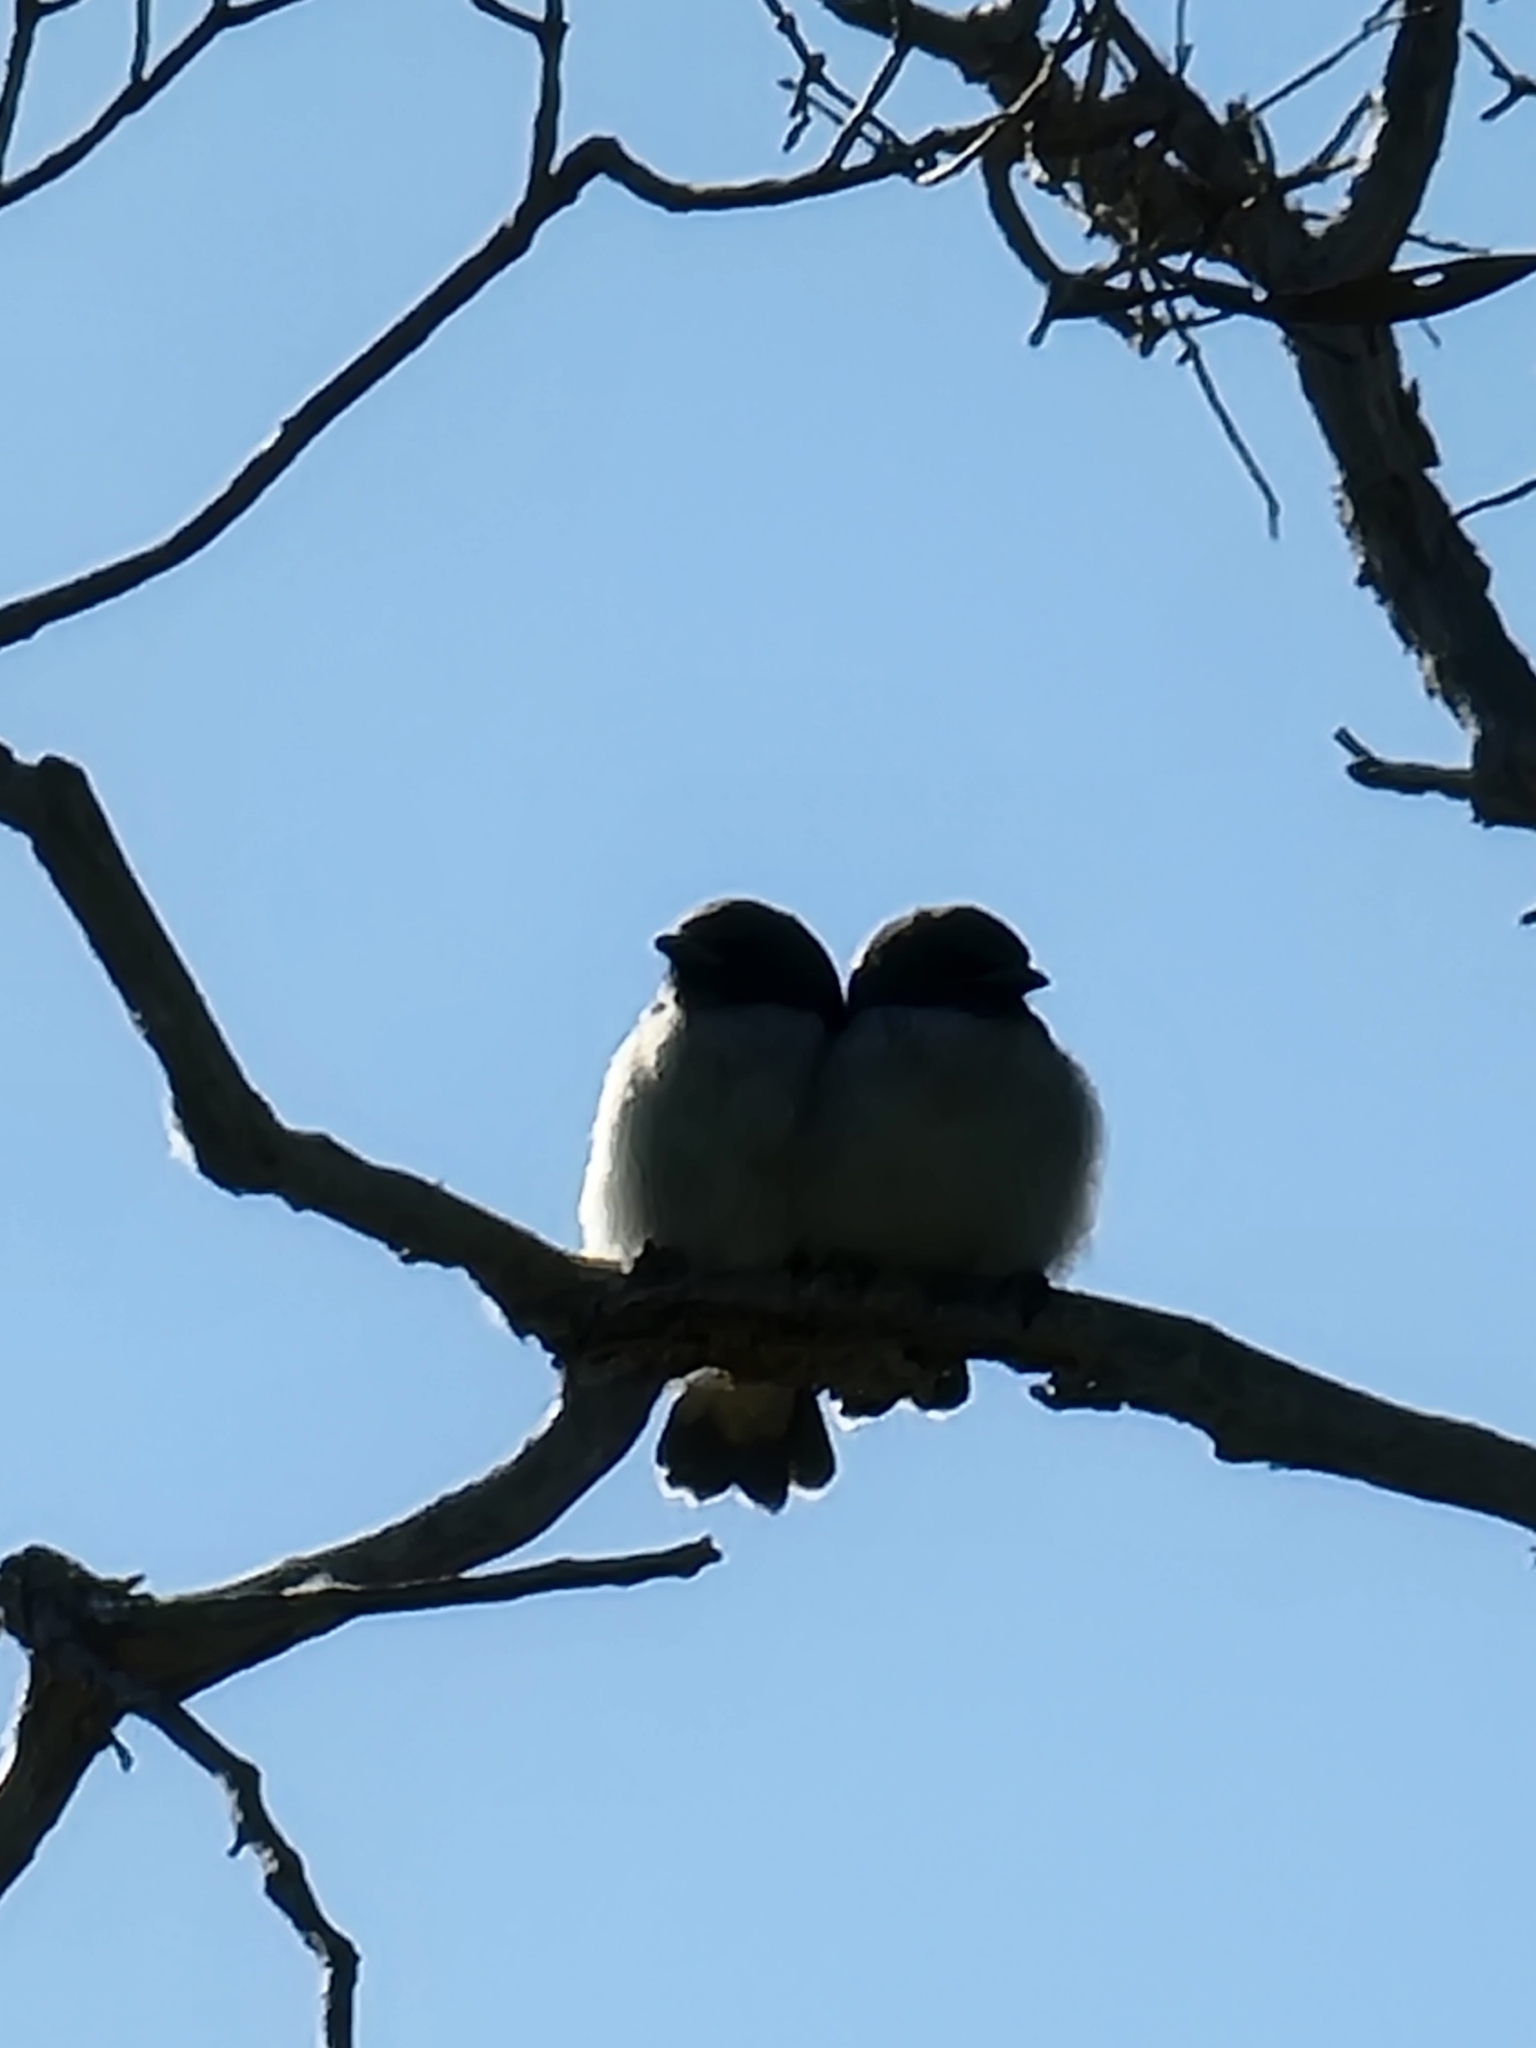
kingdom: Animalia
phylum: Chordata
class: Aves
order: Passeriformes
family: Artamidae
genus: Artamus
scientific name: Artamus leucoryn
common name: White-breasted woodswallow
